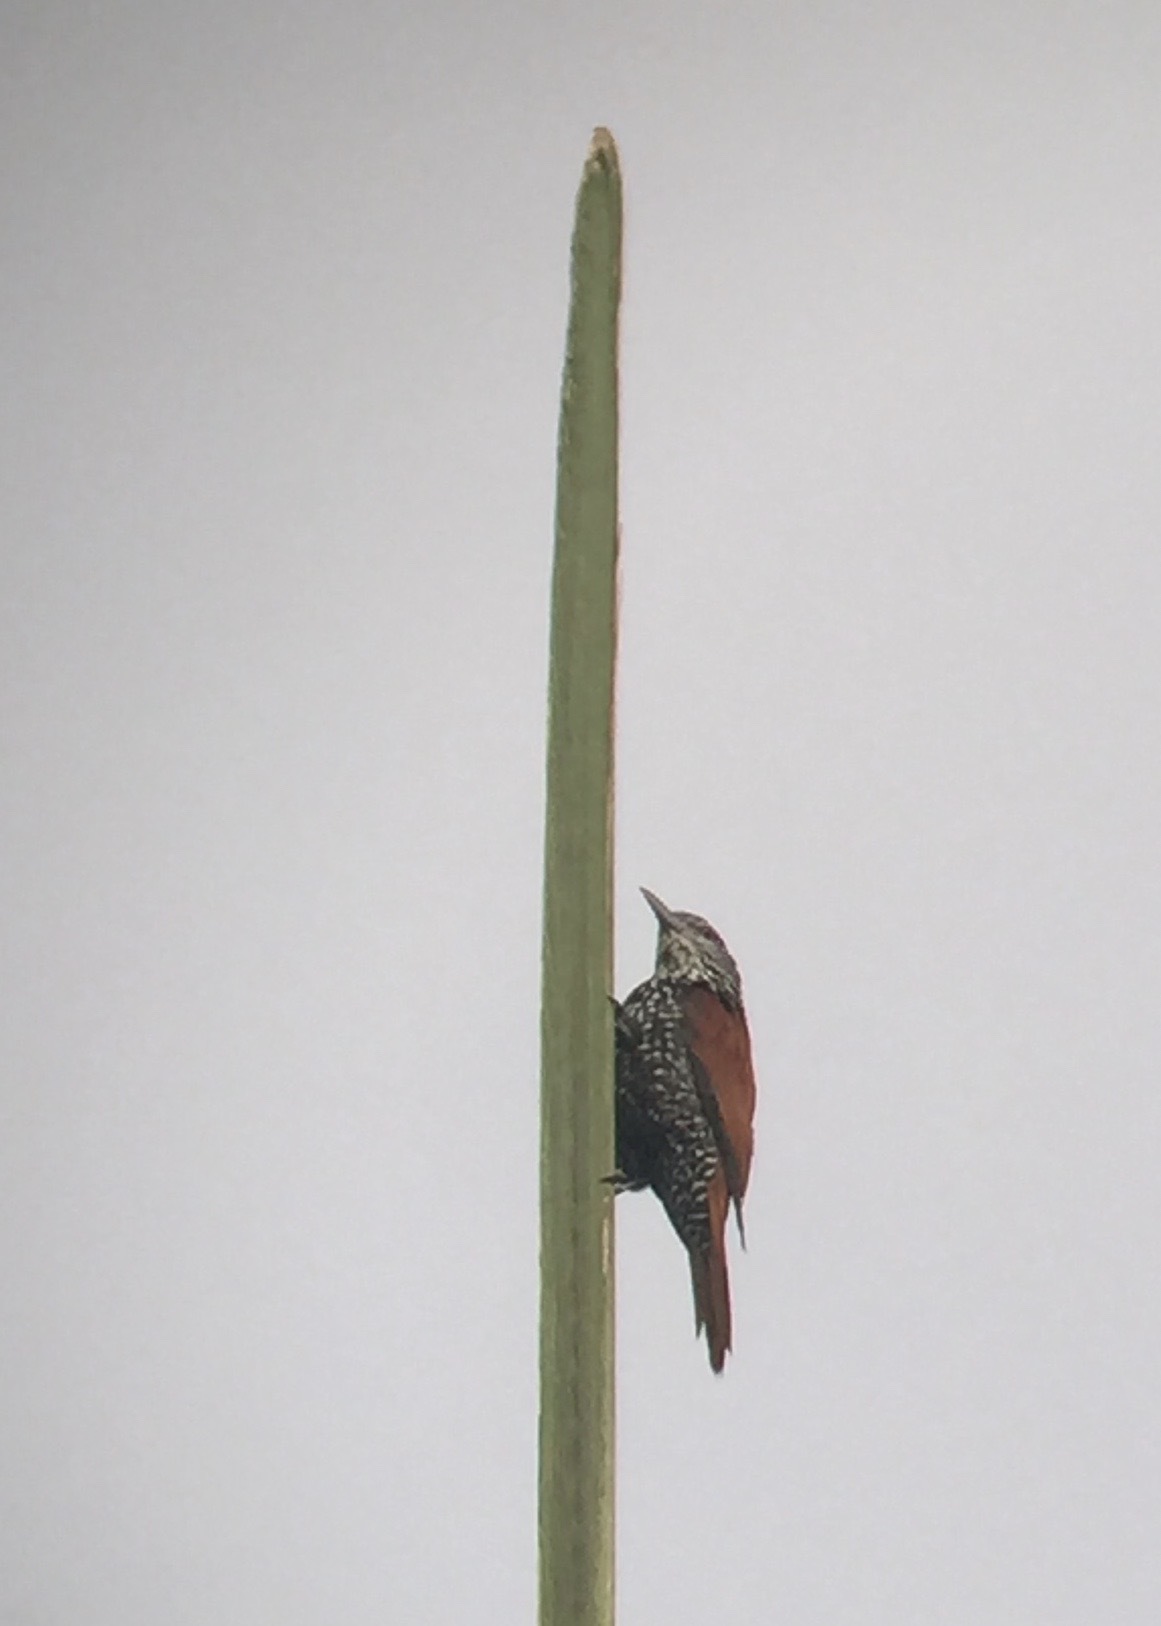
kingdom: Animalia
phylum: Chordata
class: Aves
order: Passeriformes
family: Furnariidae
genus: Berlepschia
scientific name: Berlepschia rikeri
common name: Point-tailed palmcreeper
